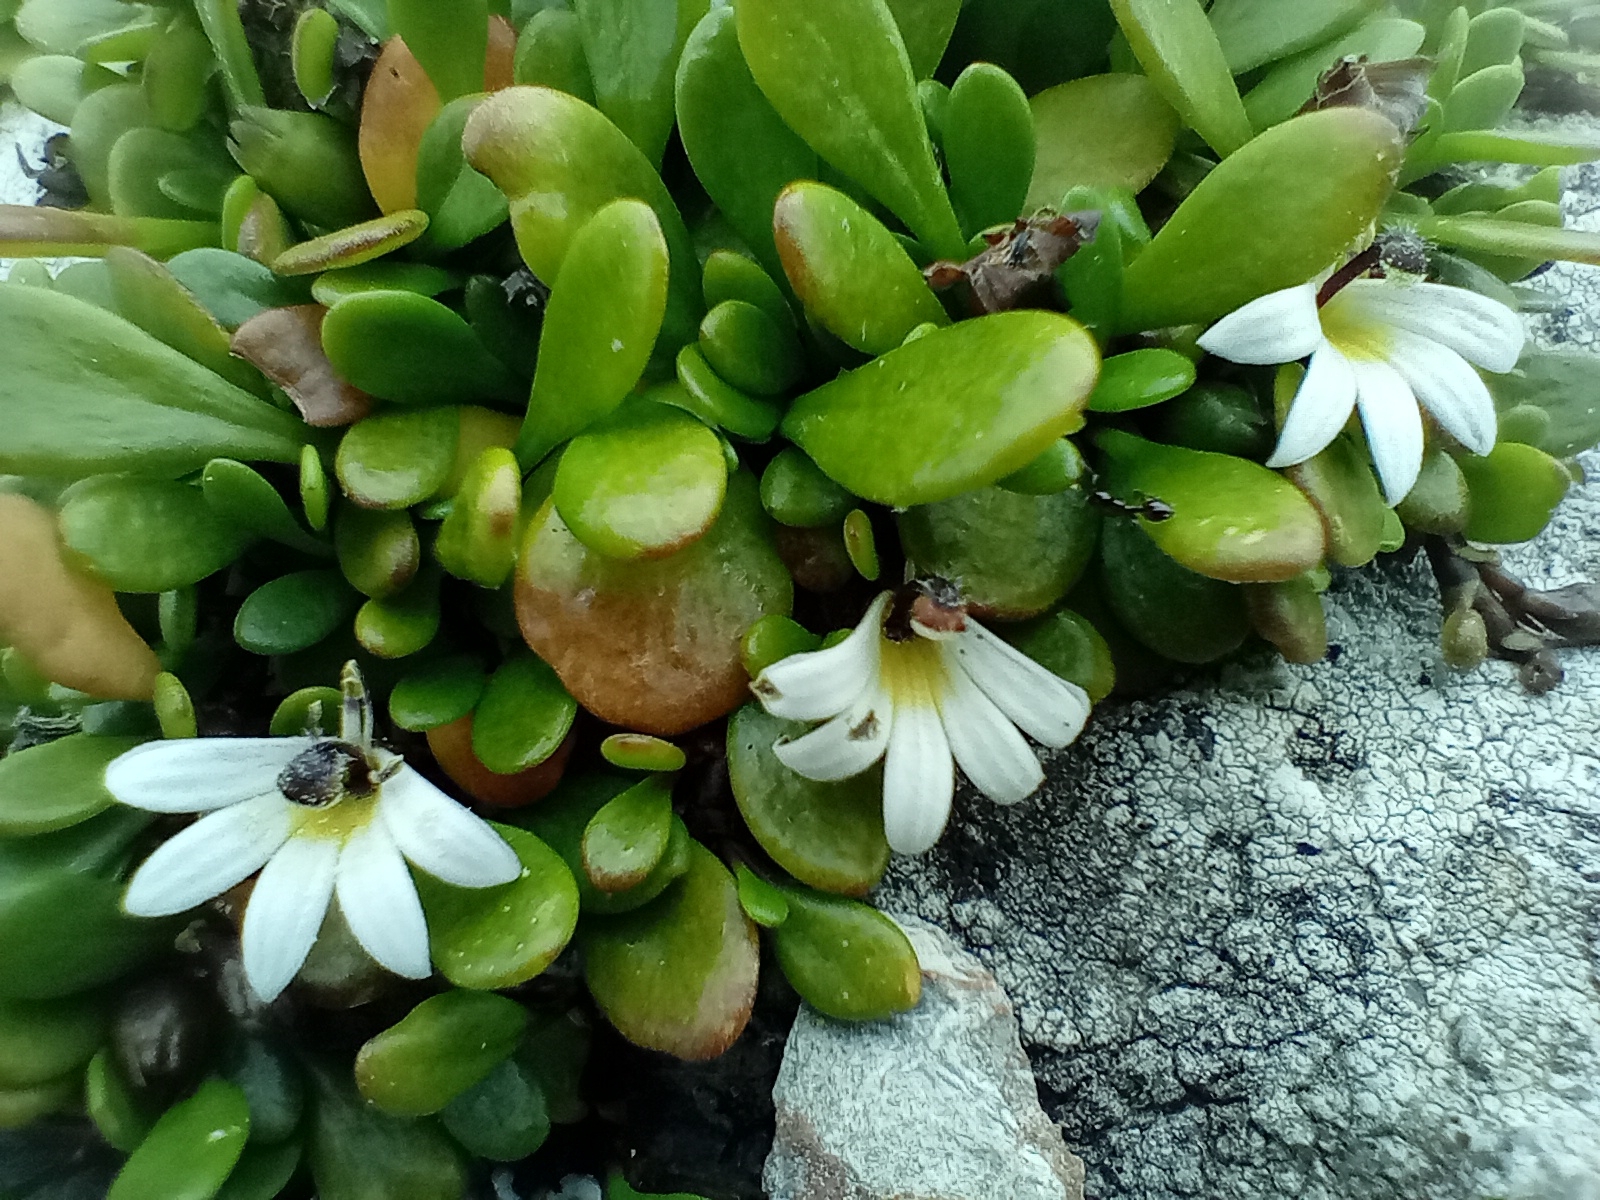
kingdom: Plantae
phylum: Tracheophyta
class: Magnoliopsida
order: Asterales
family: Goodeniaceae
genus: Goodenia
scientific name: Goodenia radicans
